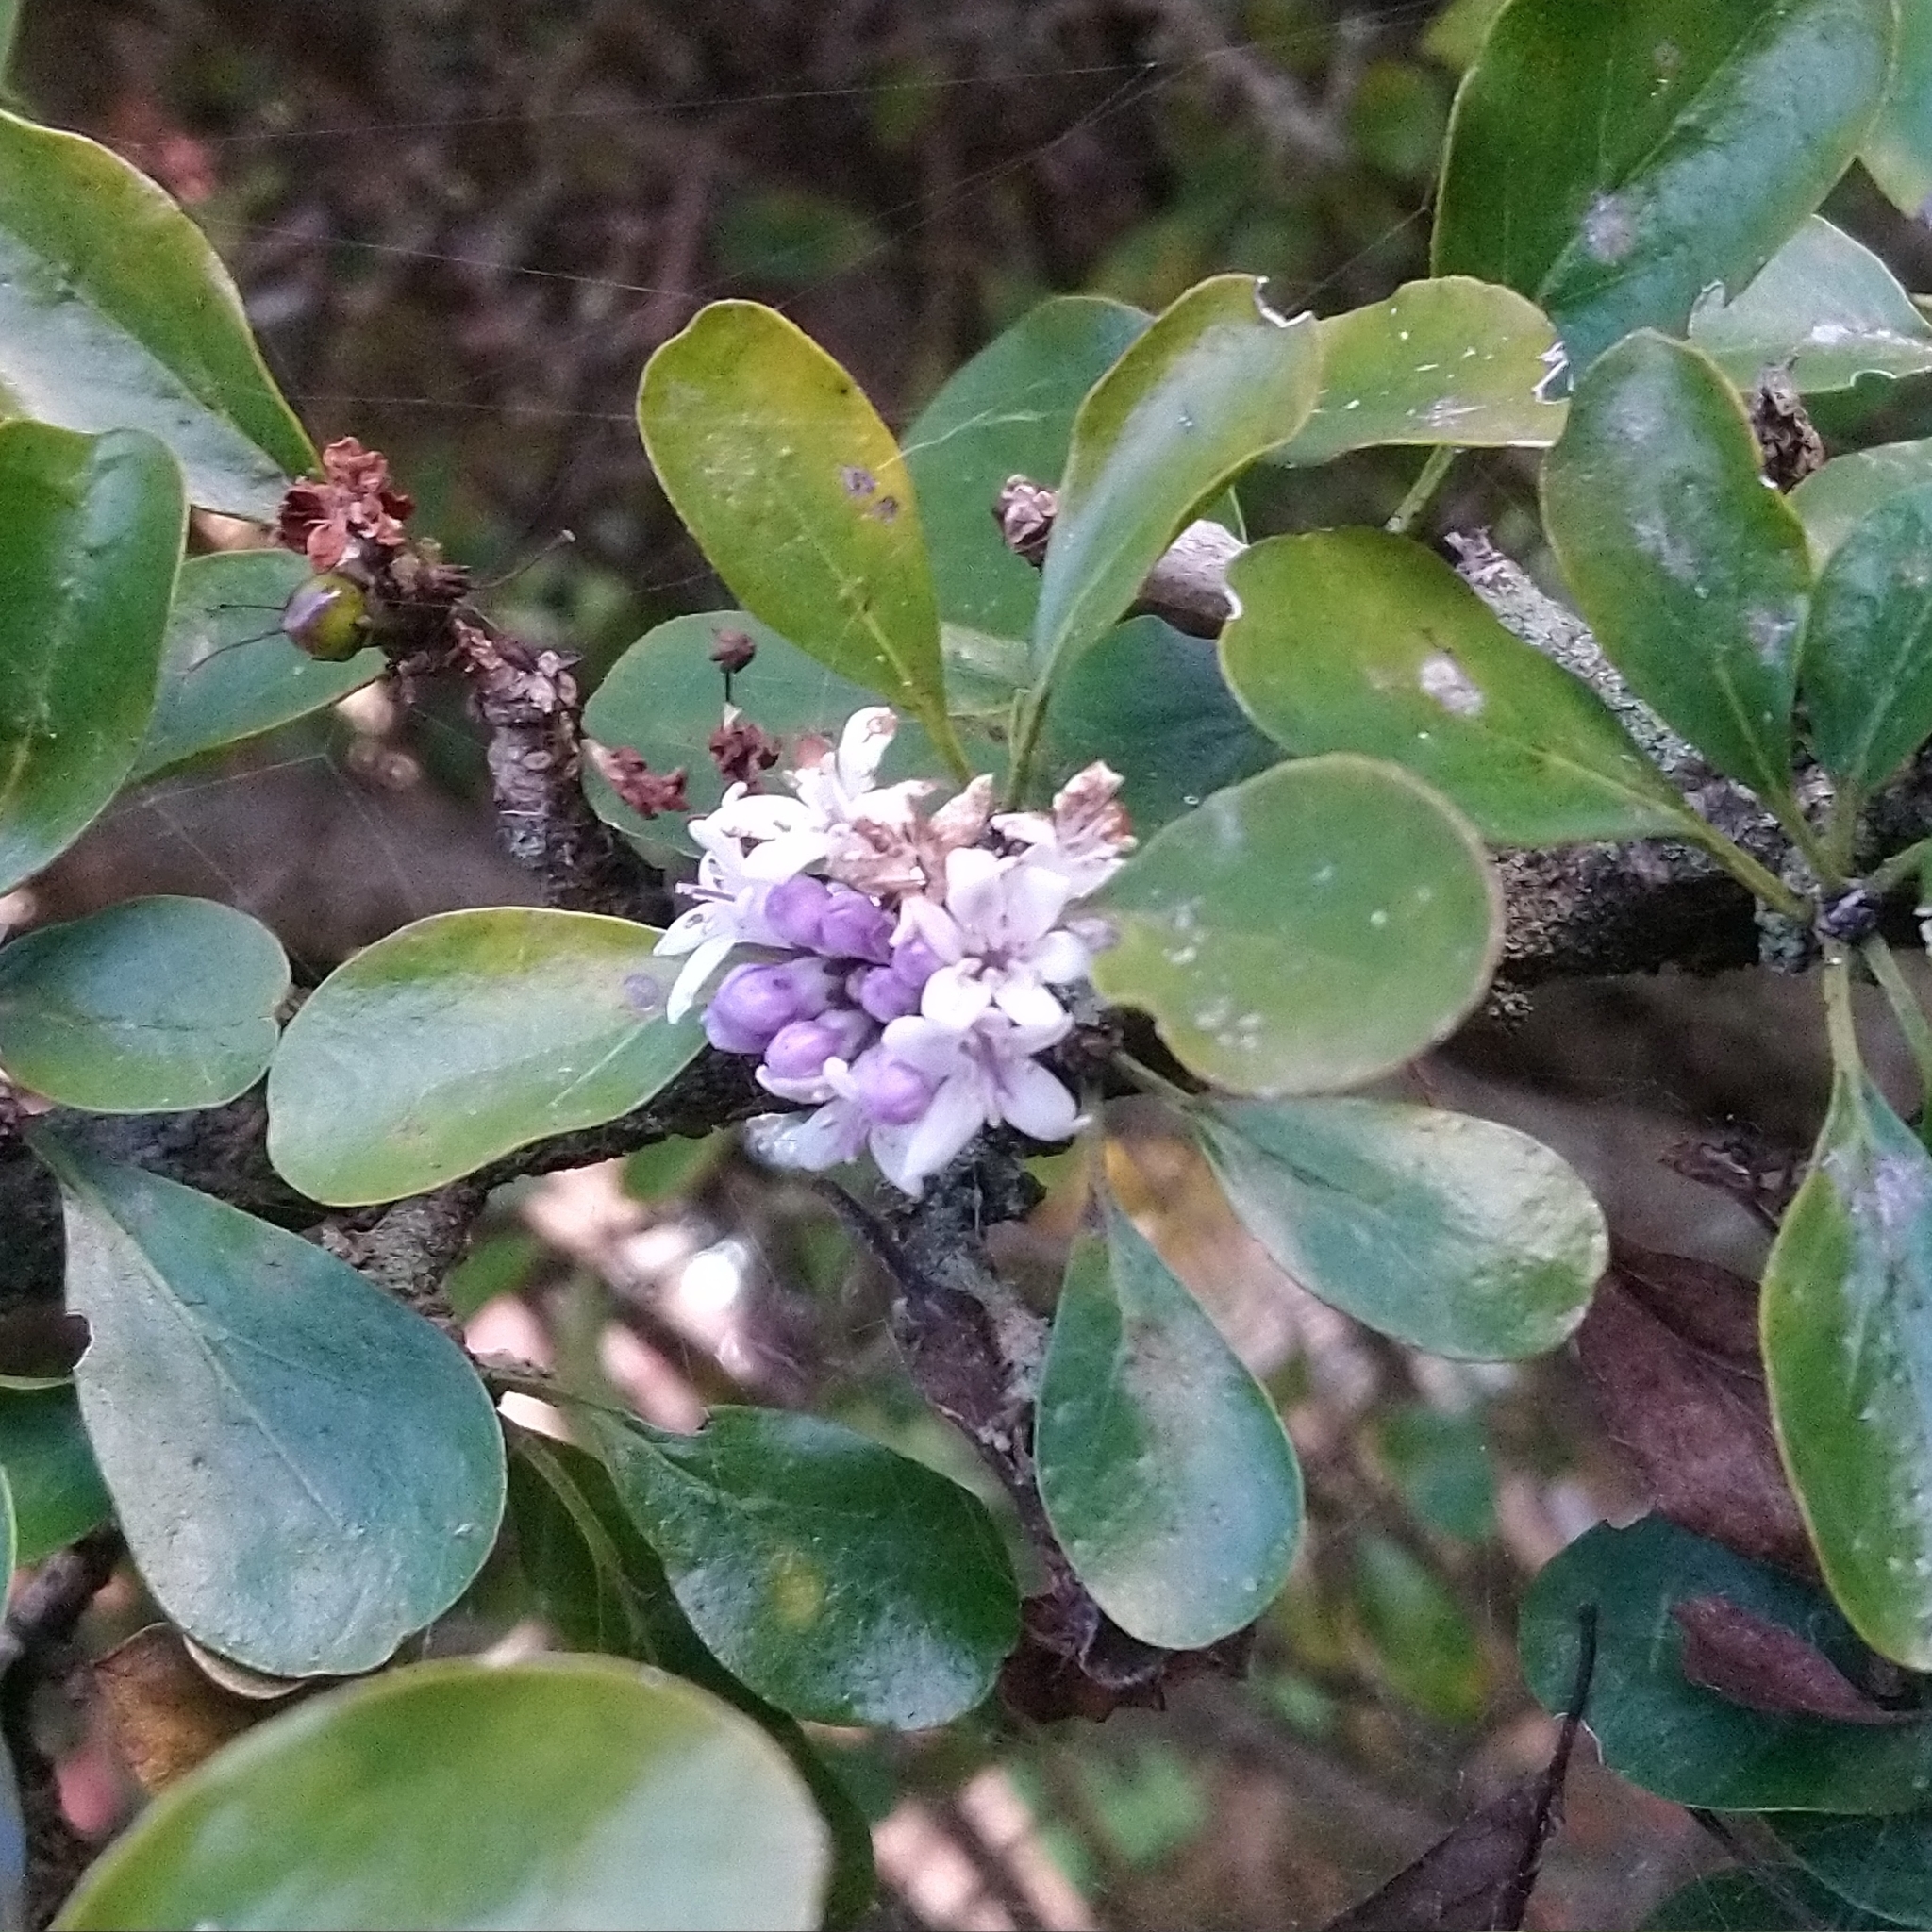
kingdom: Plantae
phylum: Tracheophyta
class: Magnoliopsida
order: Boraginales
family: Ehretiaceae
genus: Ehretia
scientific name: Ehretia rigida
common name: Cape lilac
